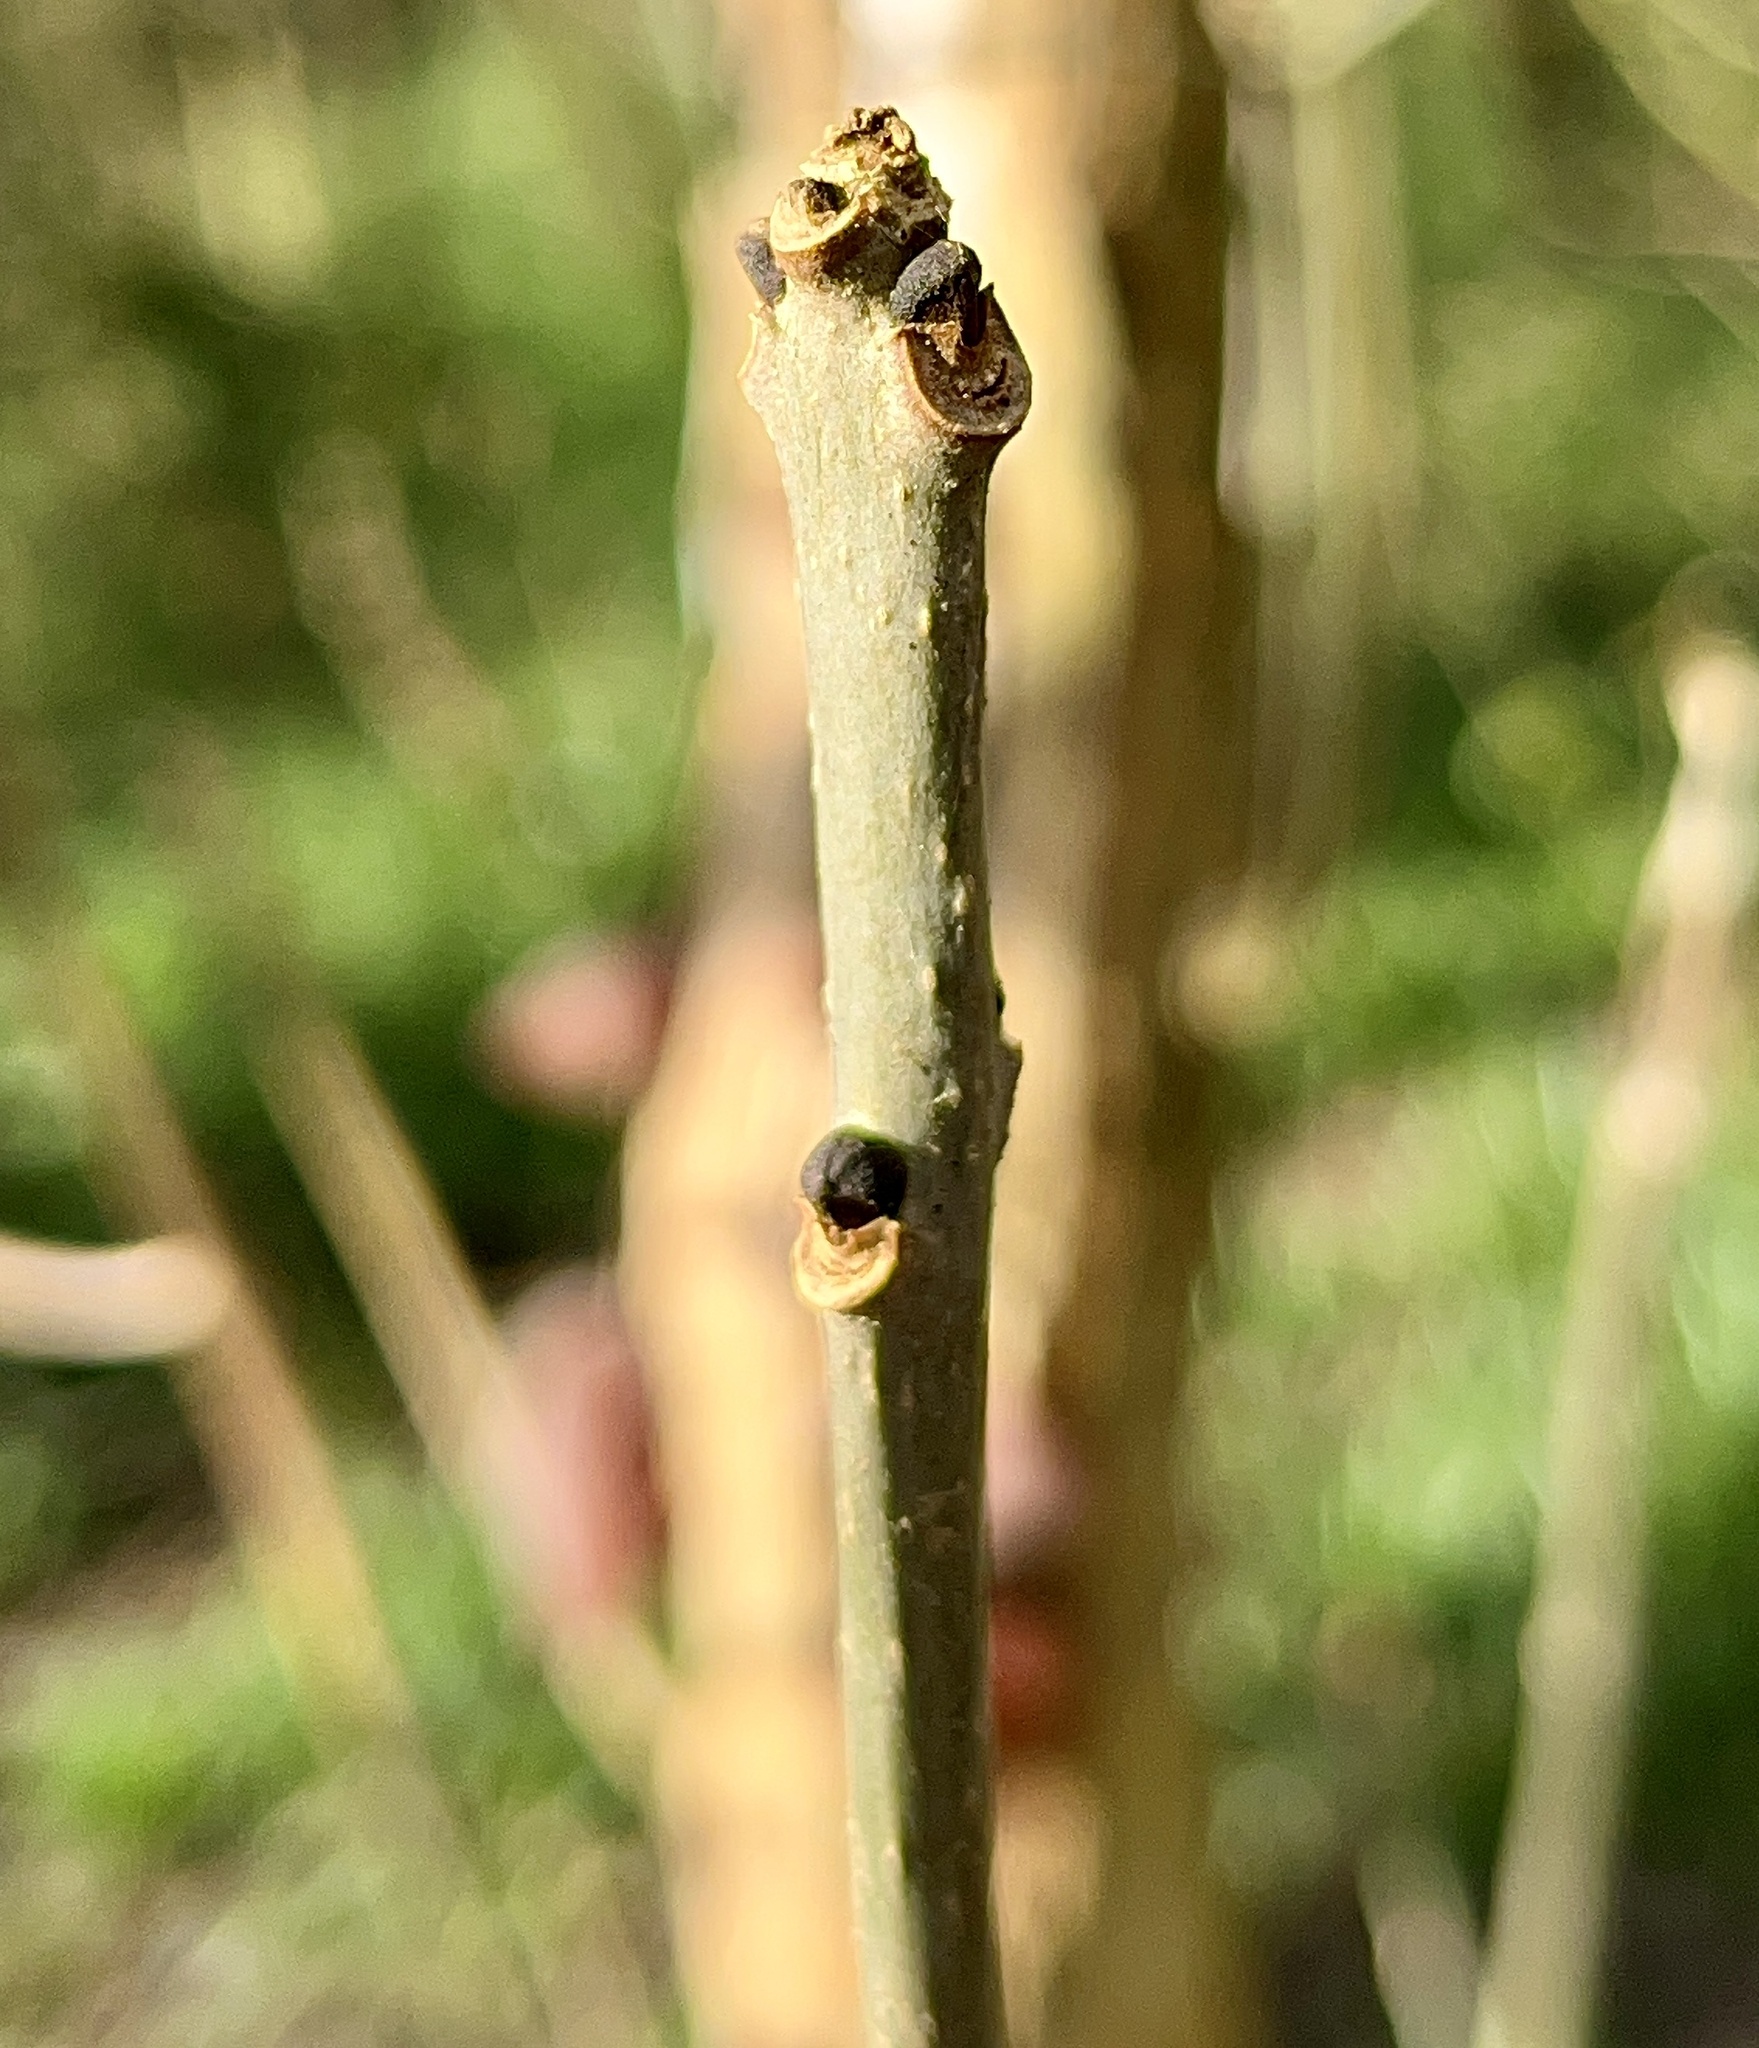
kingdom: Plantae
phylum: Tracheophyta
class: Magnoliopsida
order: Lamiales
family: Oleaceae
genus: Fraxinus
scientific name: Fraxinus excelsior
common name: European ash
